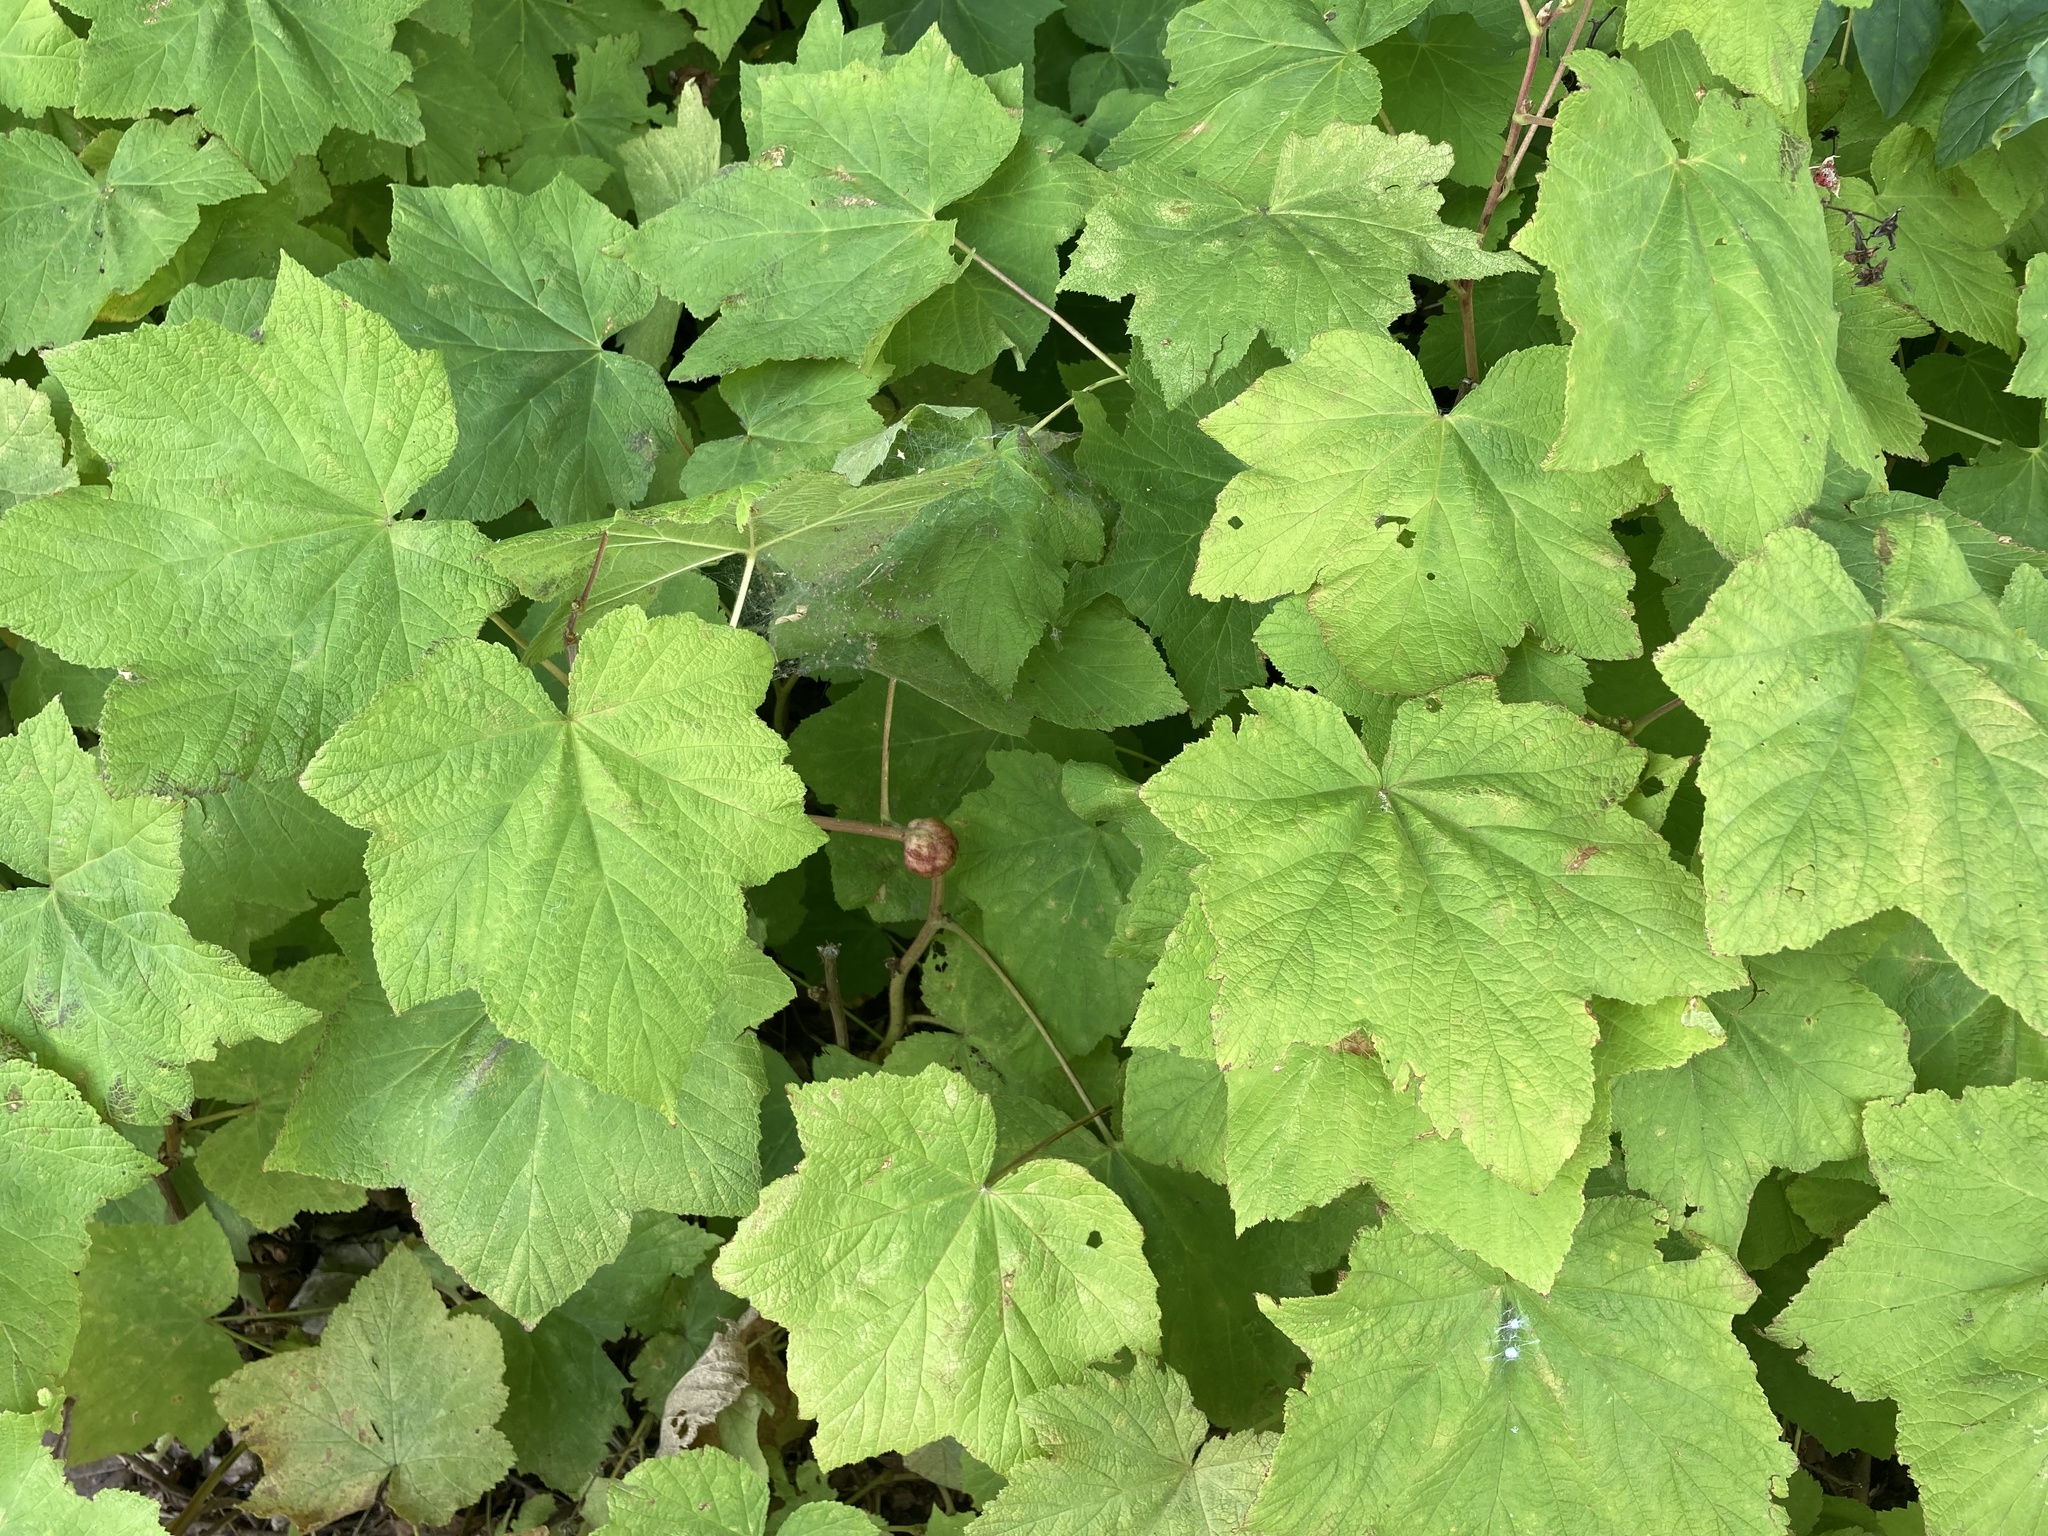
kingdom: Animalia
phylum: Arthropoda
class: Insecta
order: Hymenoptera
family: Cynipidae
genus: Diastrophus
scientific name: Diastrophus
